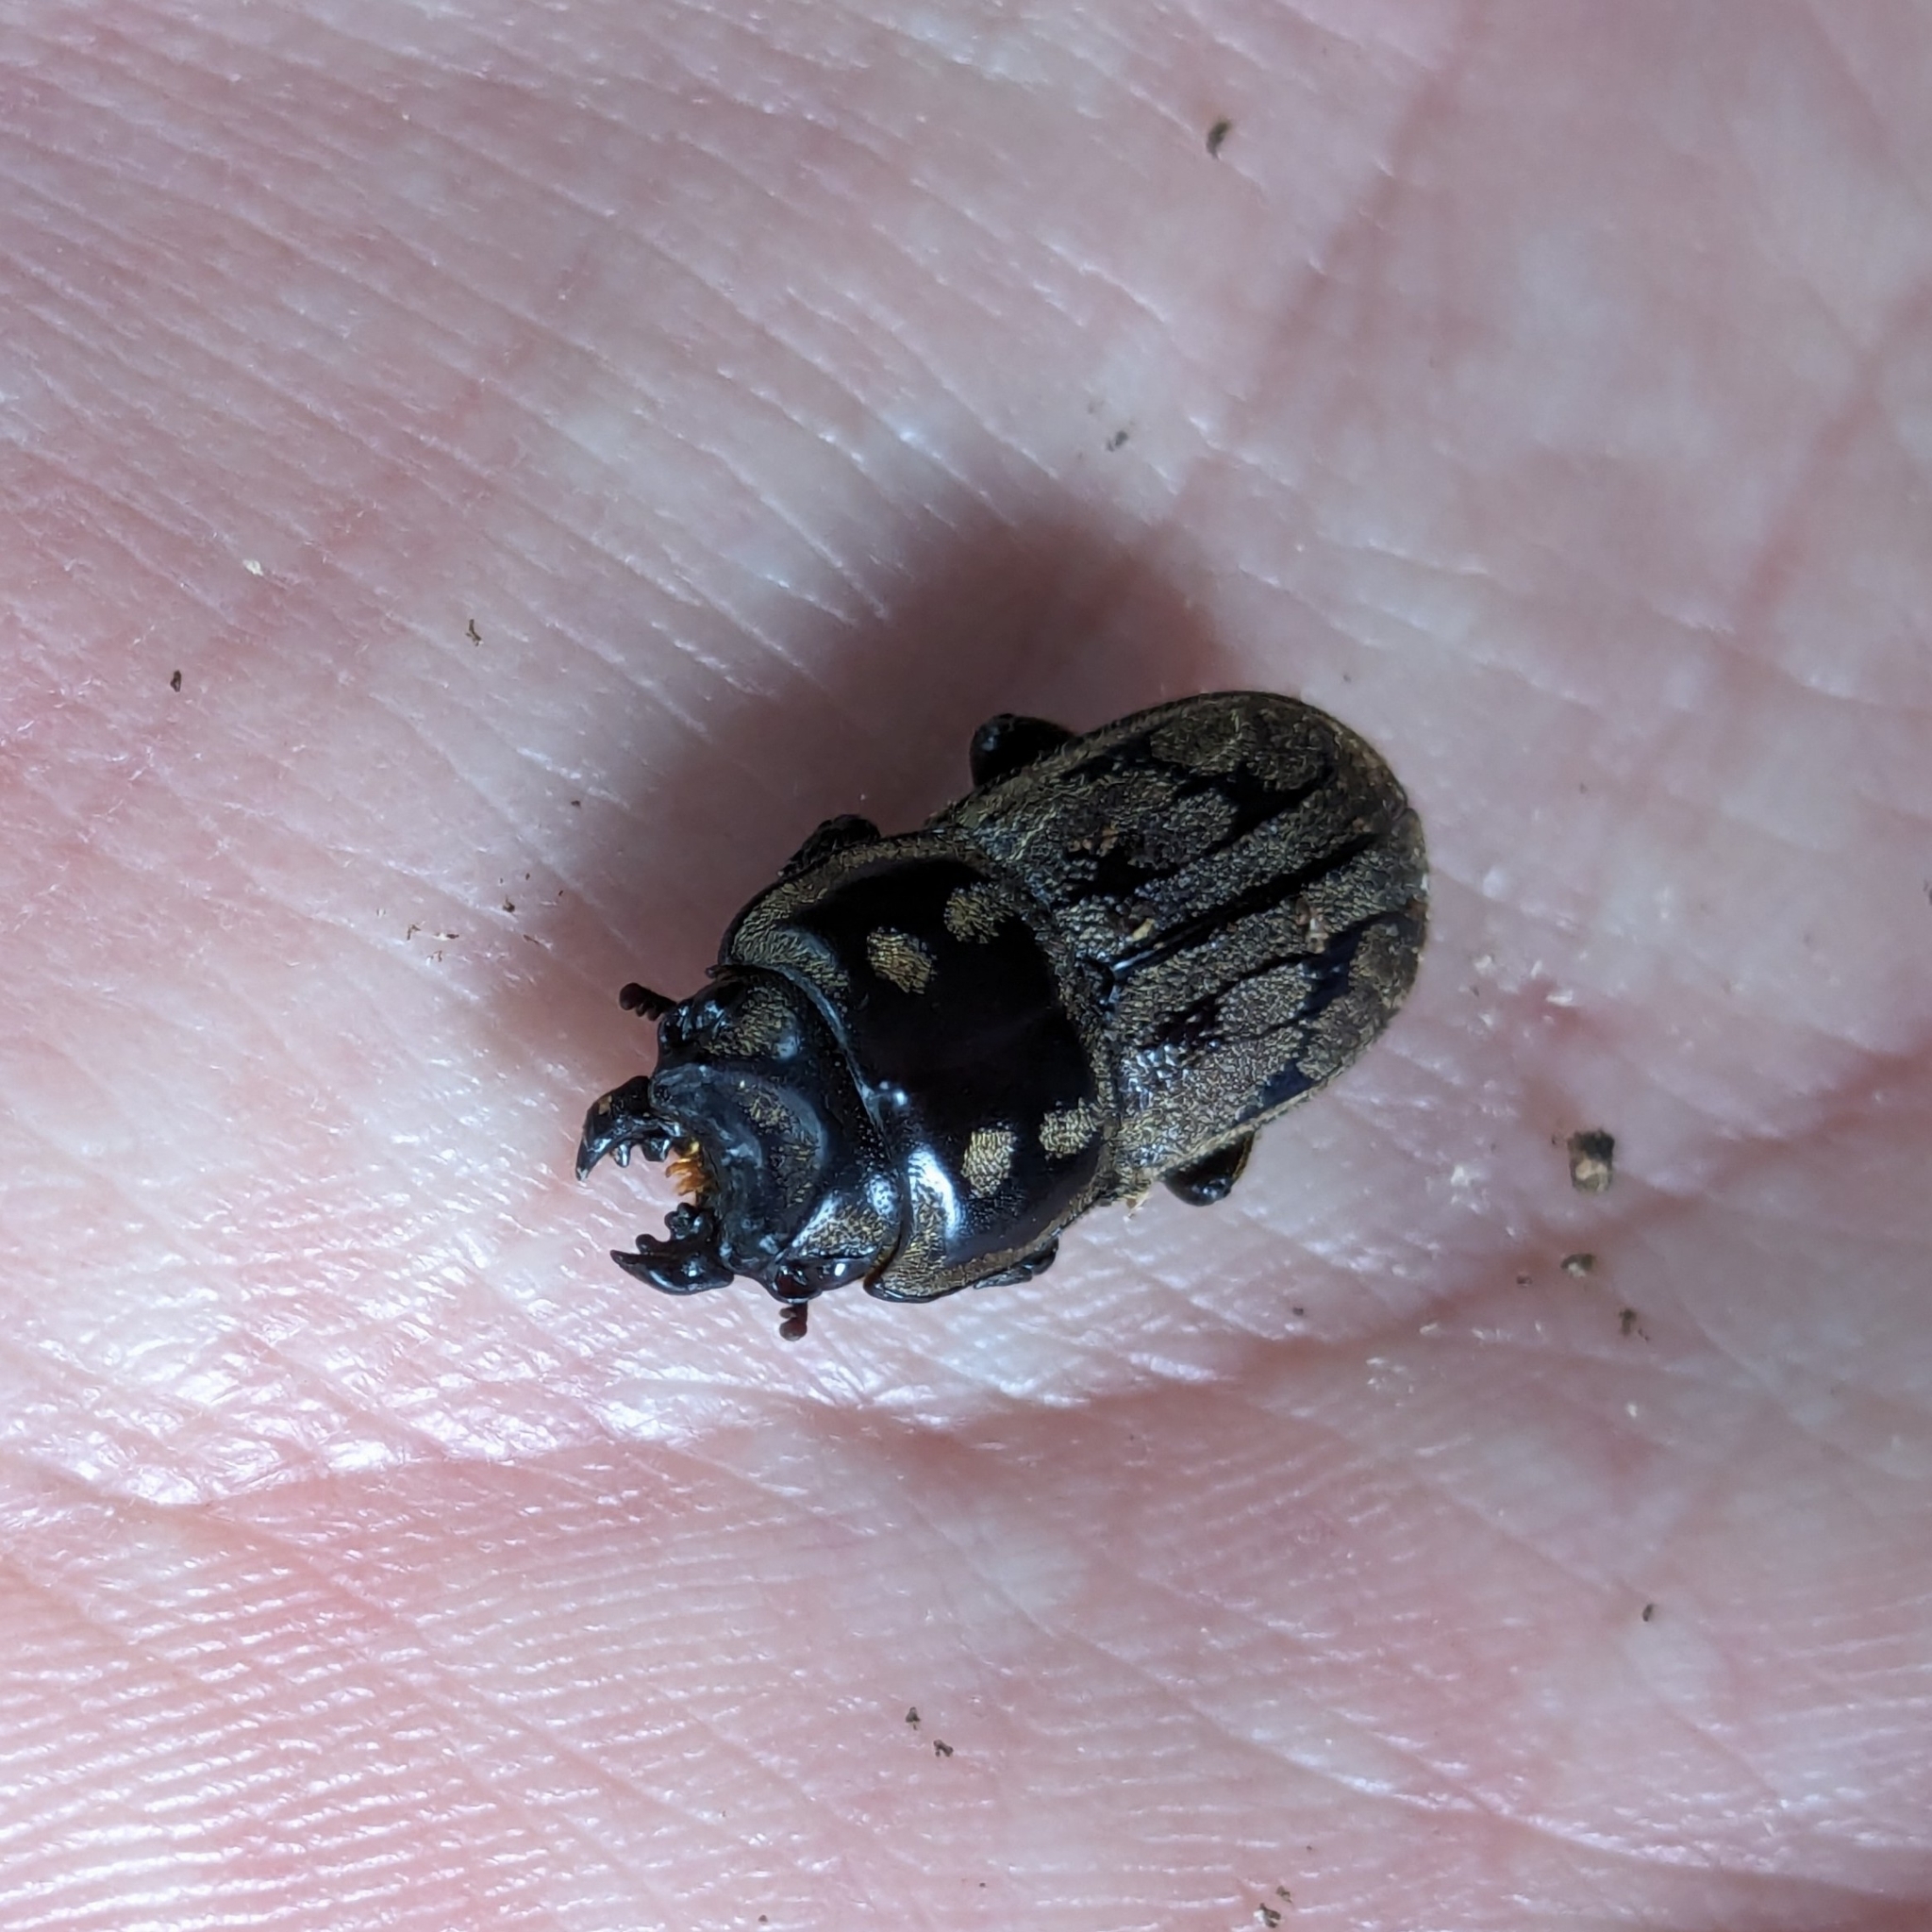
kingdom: Animalia
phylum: Arthropoda
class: Insecta
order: Coleoptera
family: Lucanidae
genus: Paralissotes
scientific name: Paralissotes reticulatus
